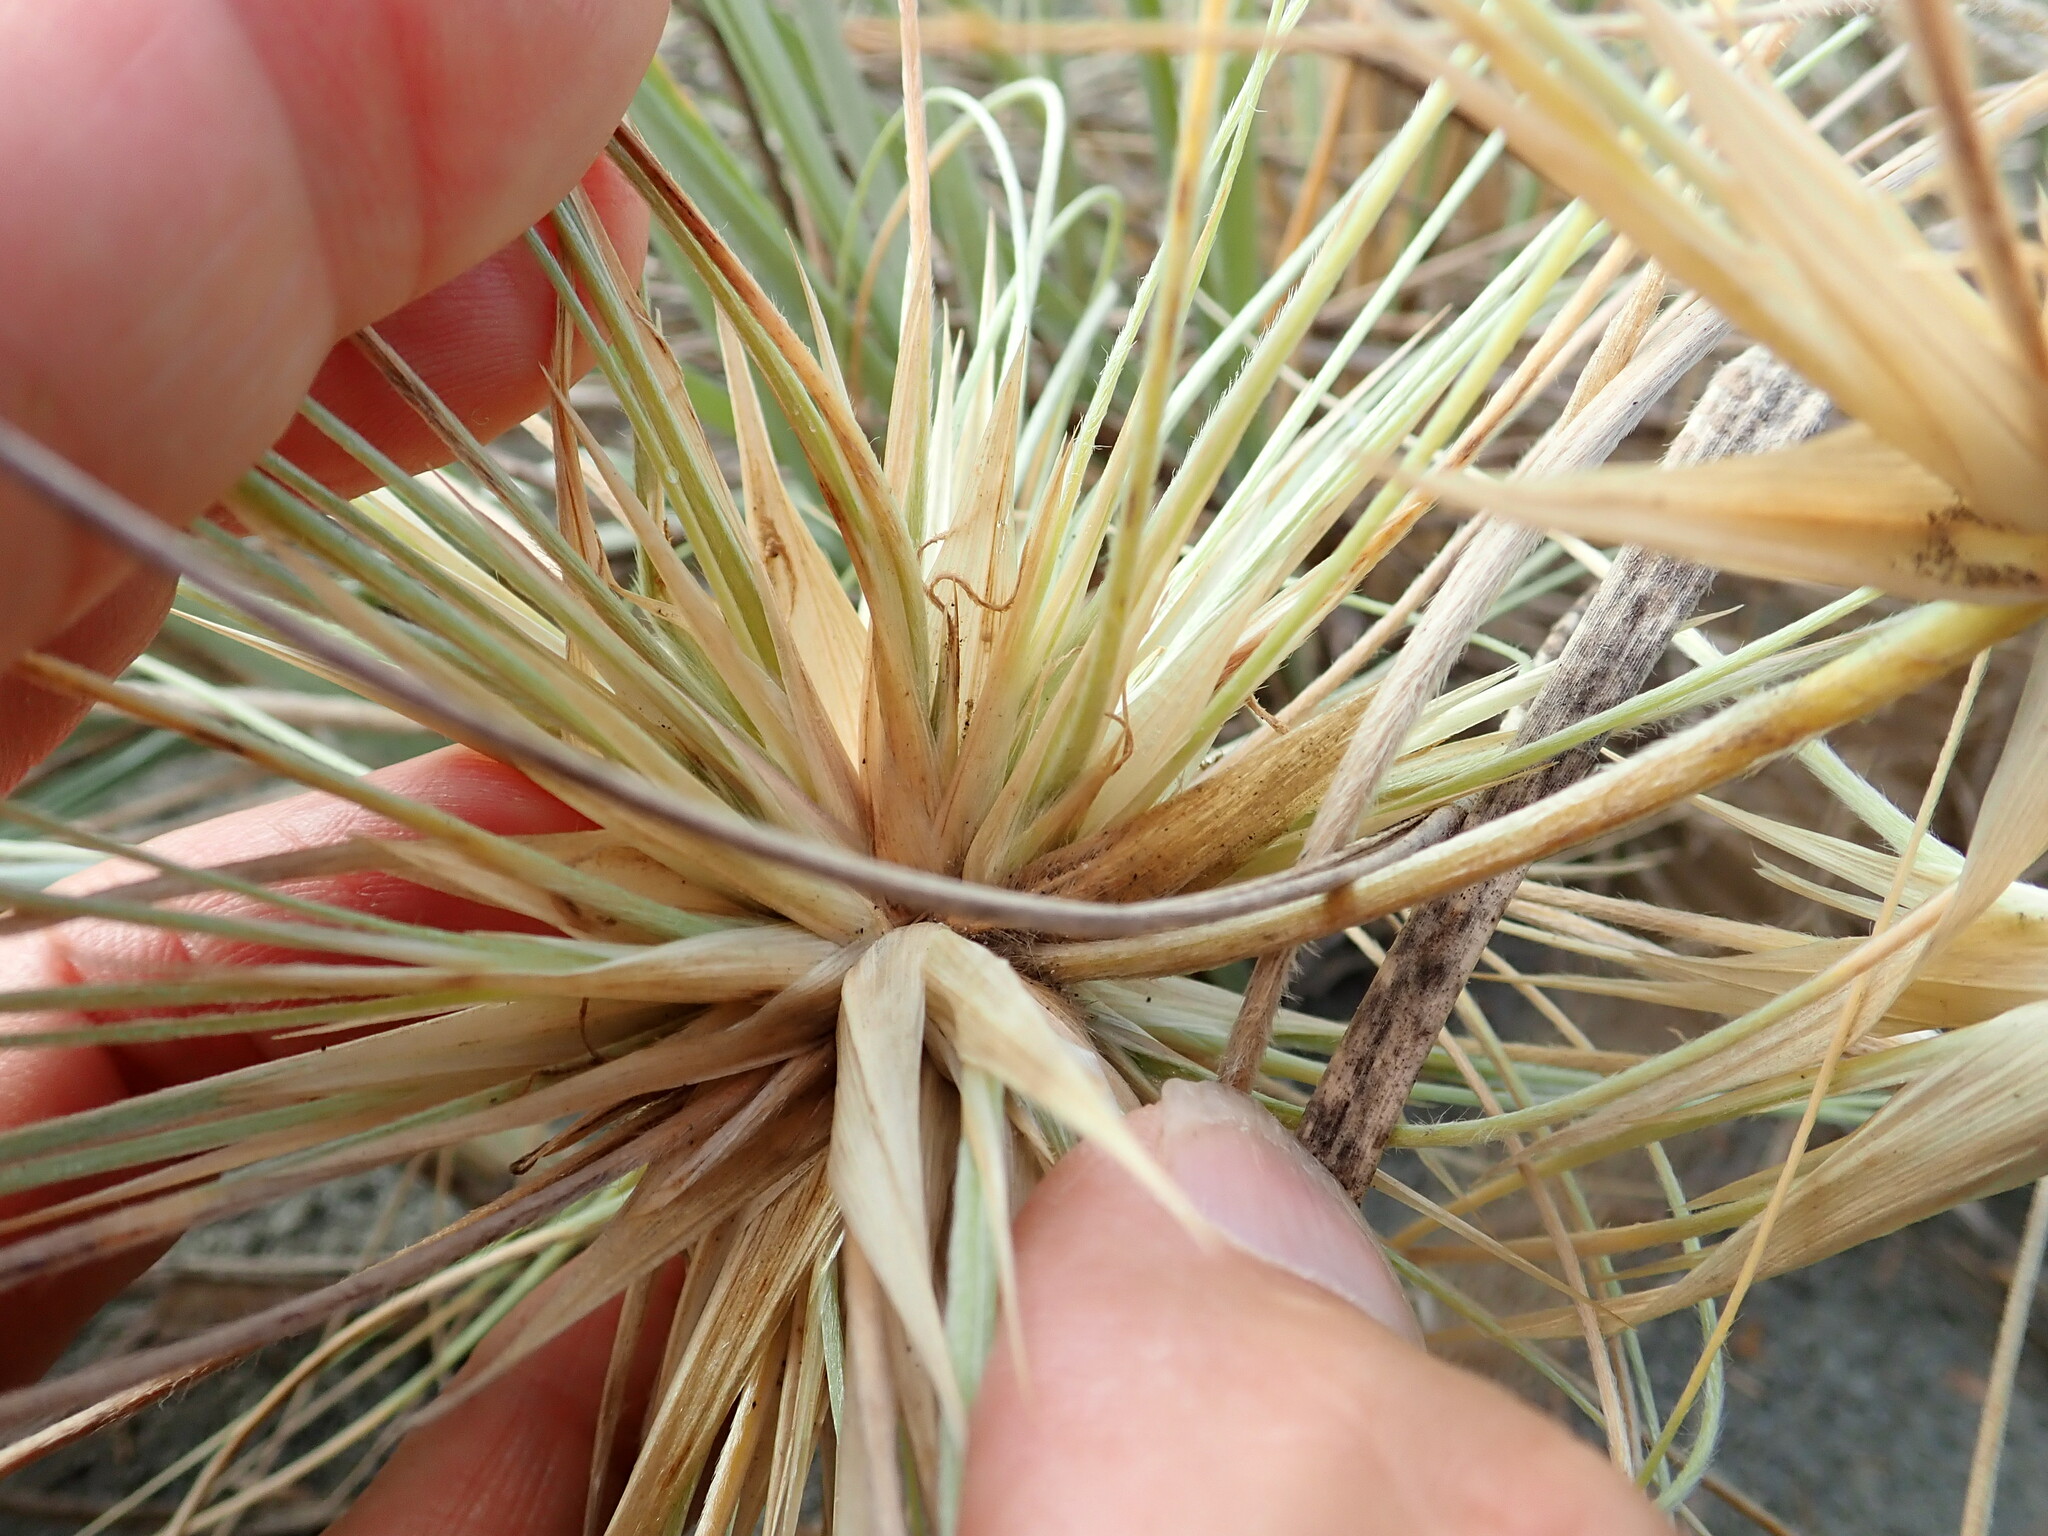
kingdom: Plantae
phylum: Tracheophyta
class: Liliopsida
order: Poales
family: Poaceae
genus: Spinifex
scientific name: Spinifex sericeus
